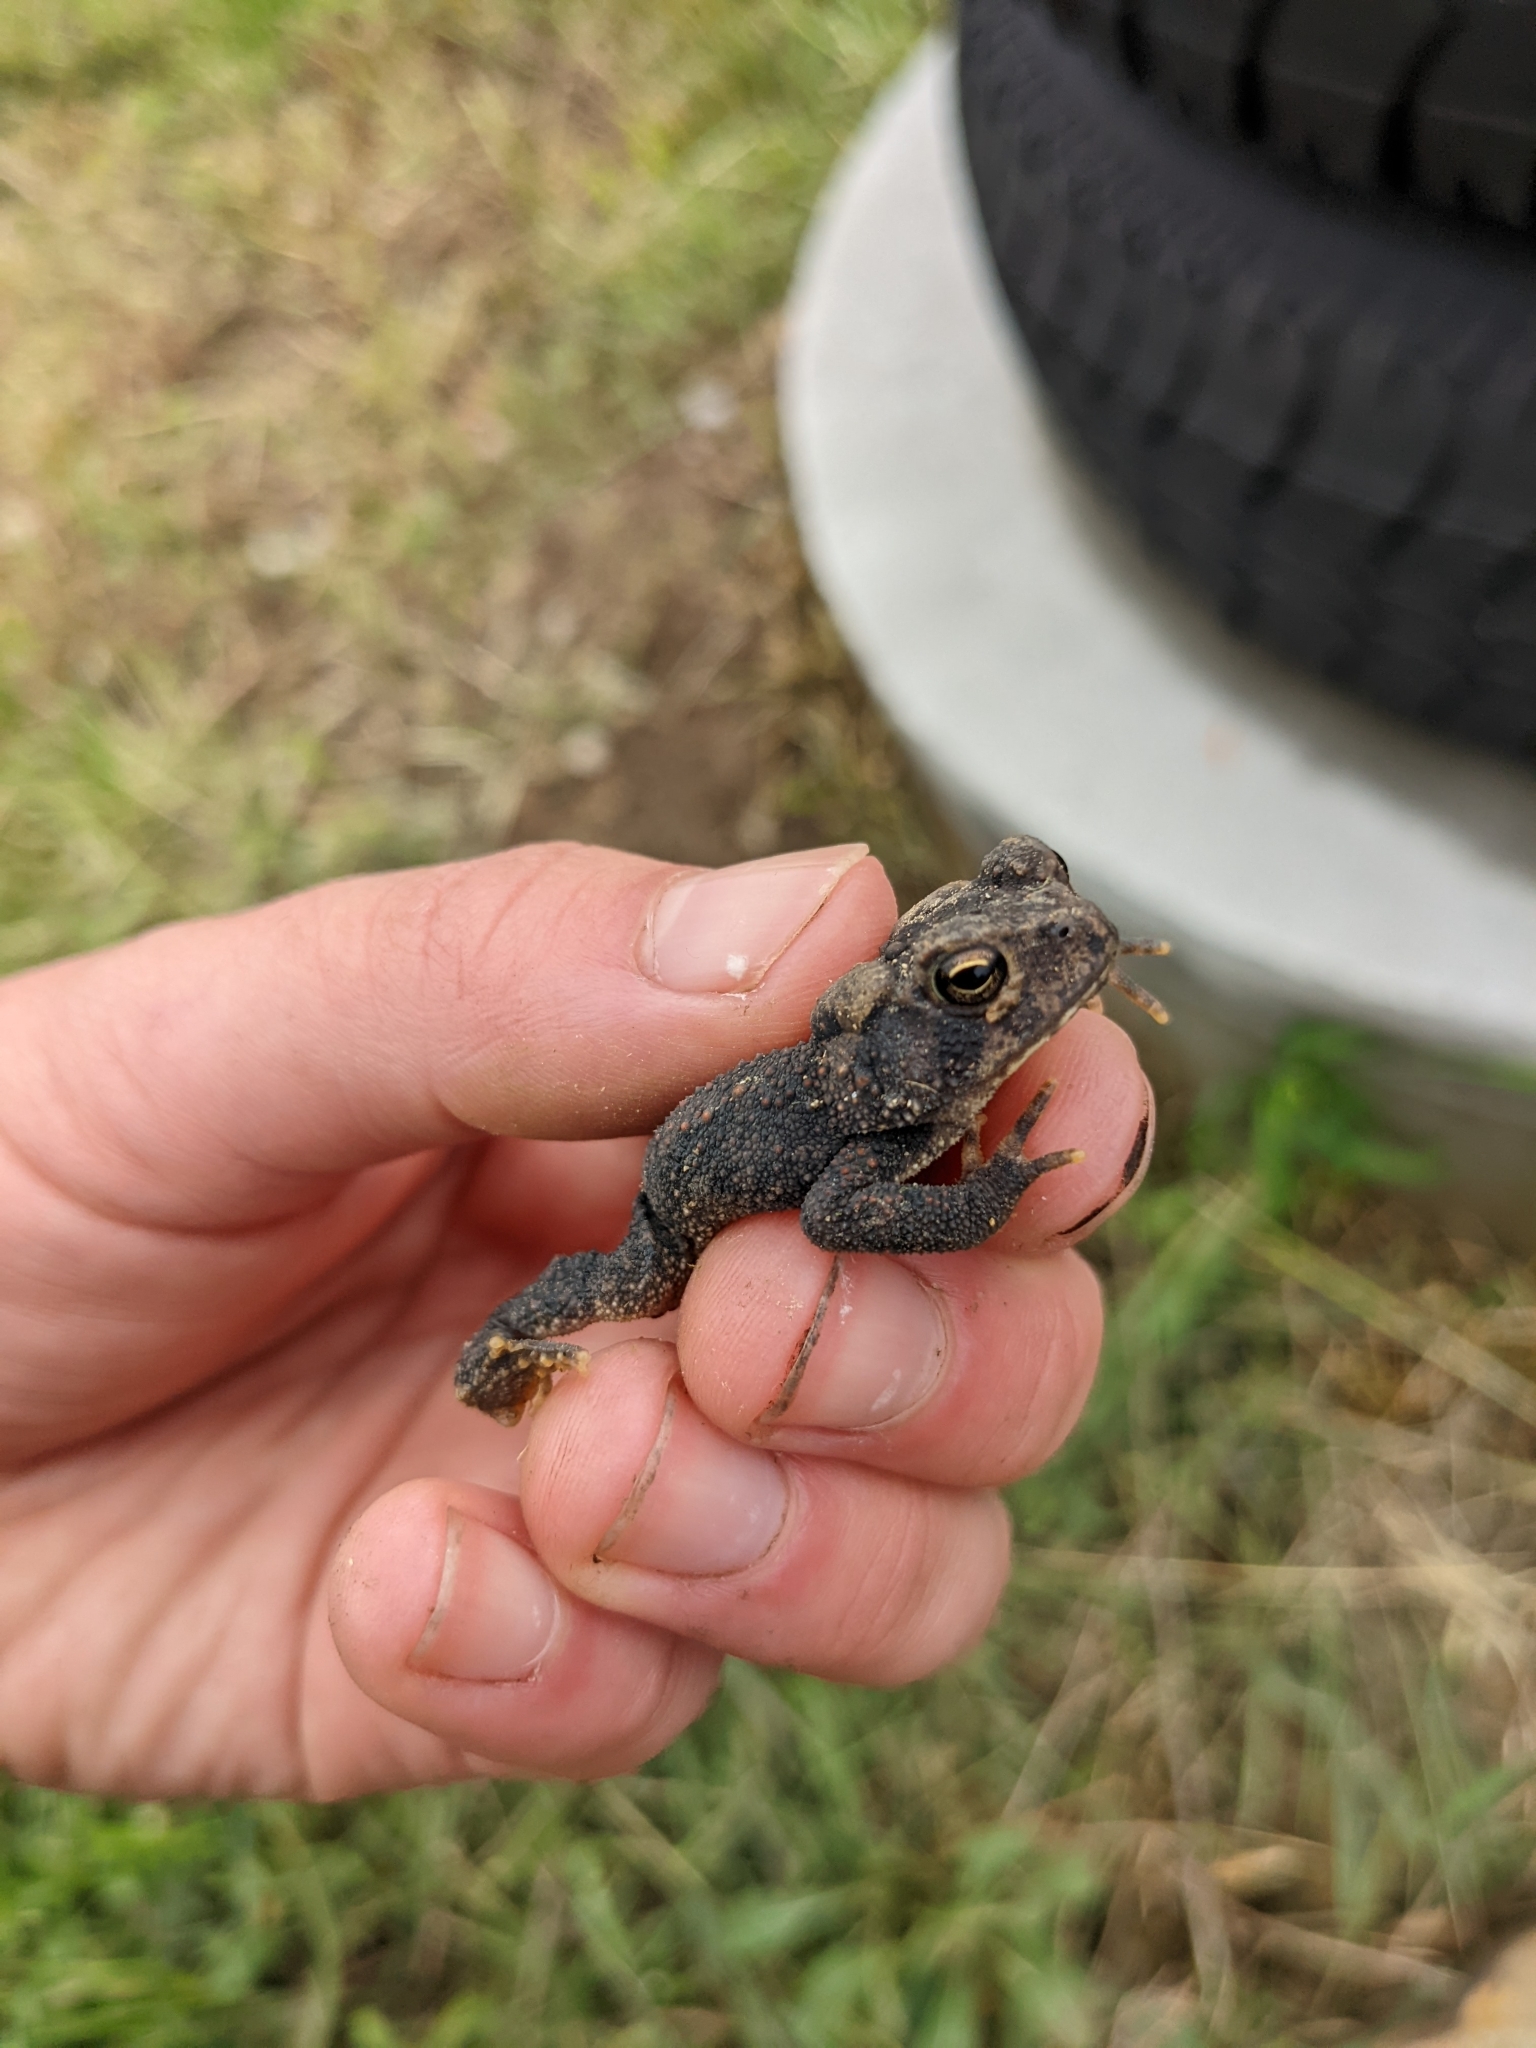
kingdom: Animalia
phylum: Chordata
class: Amphibia
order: Anura
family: Bufonidae
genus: Anaxyrus
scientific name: Anaxyrus americanus
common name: American toad
